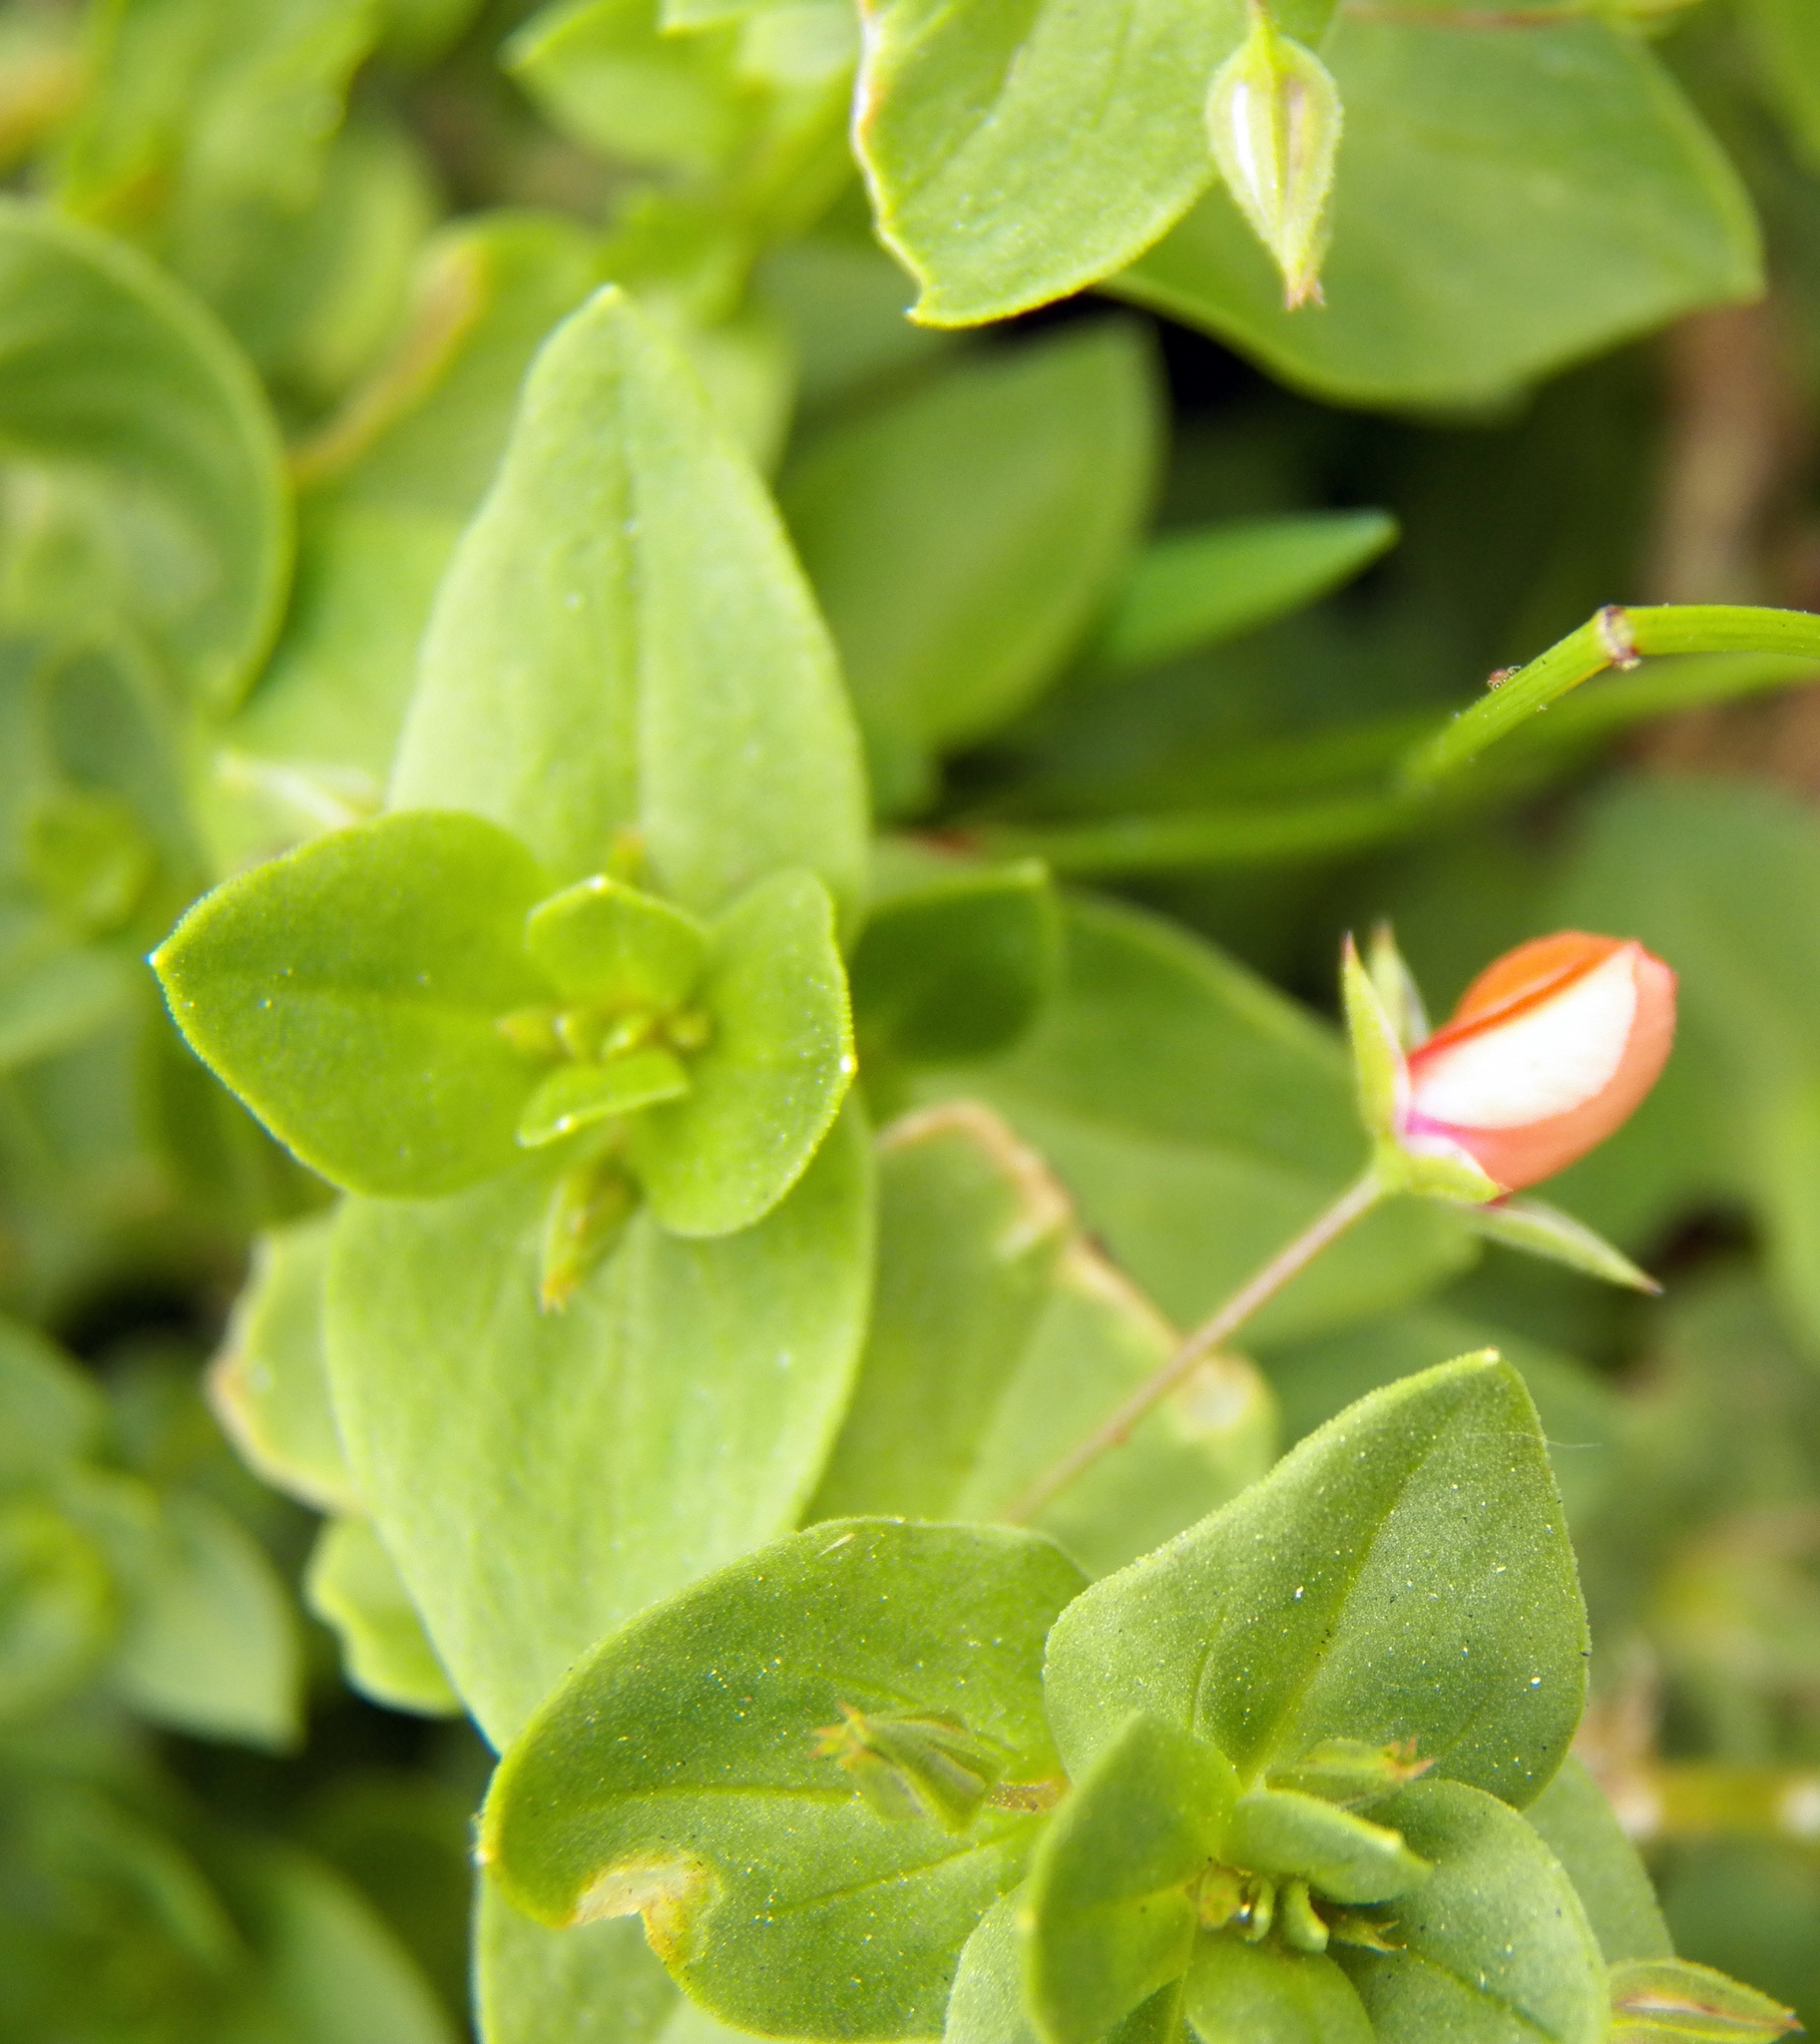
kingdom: Plantae
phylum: Tracheophyta
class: Magnoliopsida
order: Ericales
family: Primulaceae
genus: Lysimachia
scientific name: Lysimachia arvensis
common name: Scarlet pimpernel
